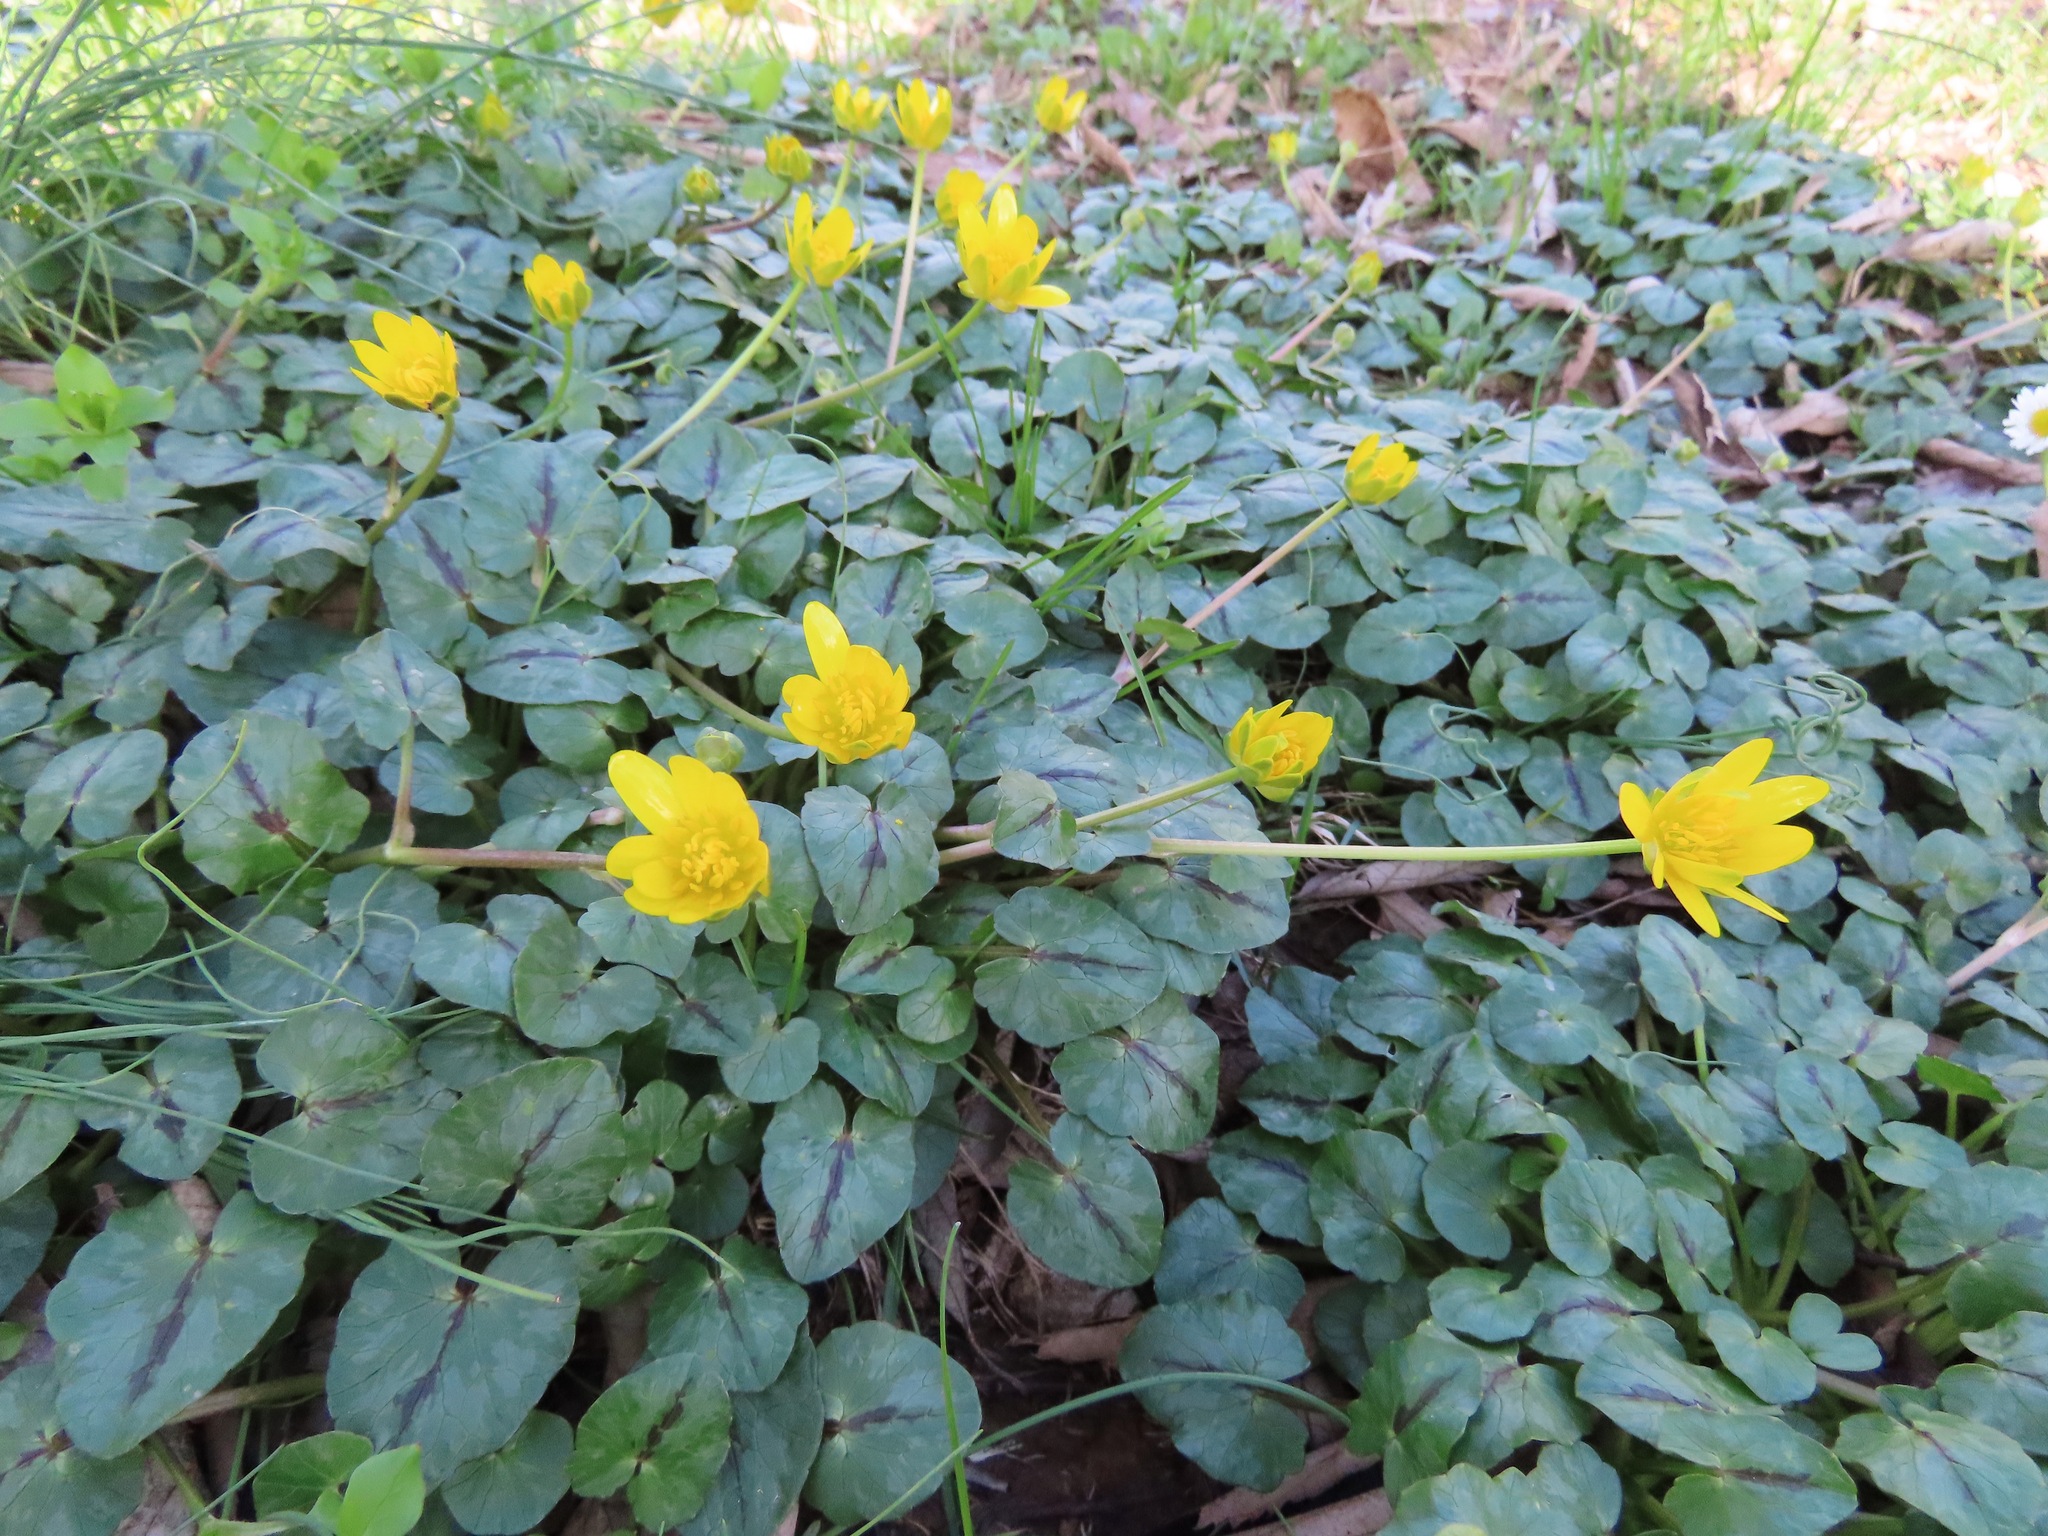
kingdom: Plantae
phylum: Tracheophyta
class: Magnoliopsida
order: Ranunculales
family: Ranunculaceae
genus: Ficaria
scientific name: Ficaria verna
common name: Lesser celandine
